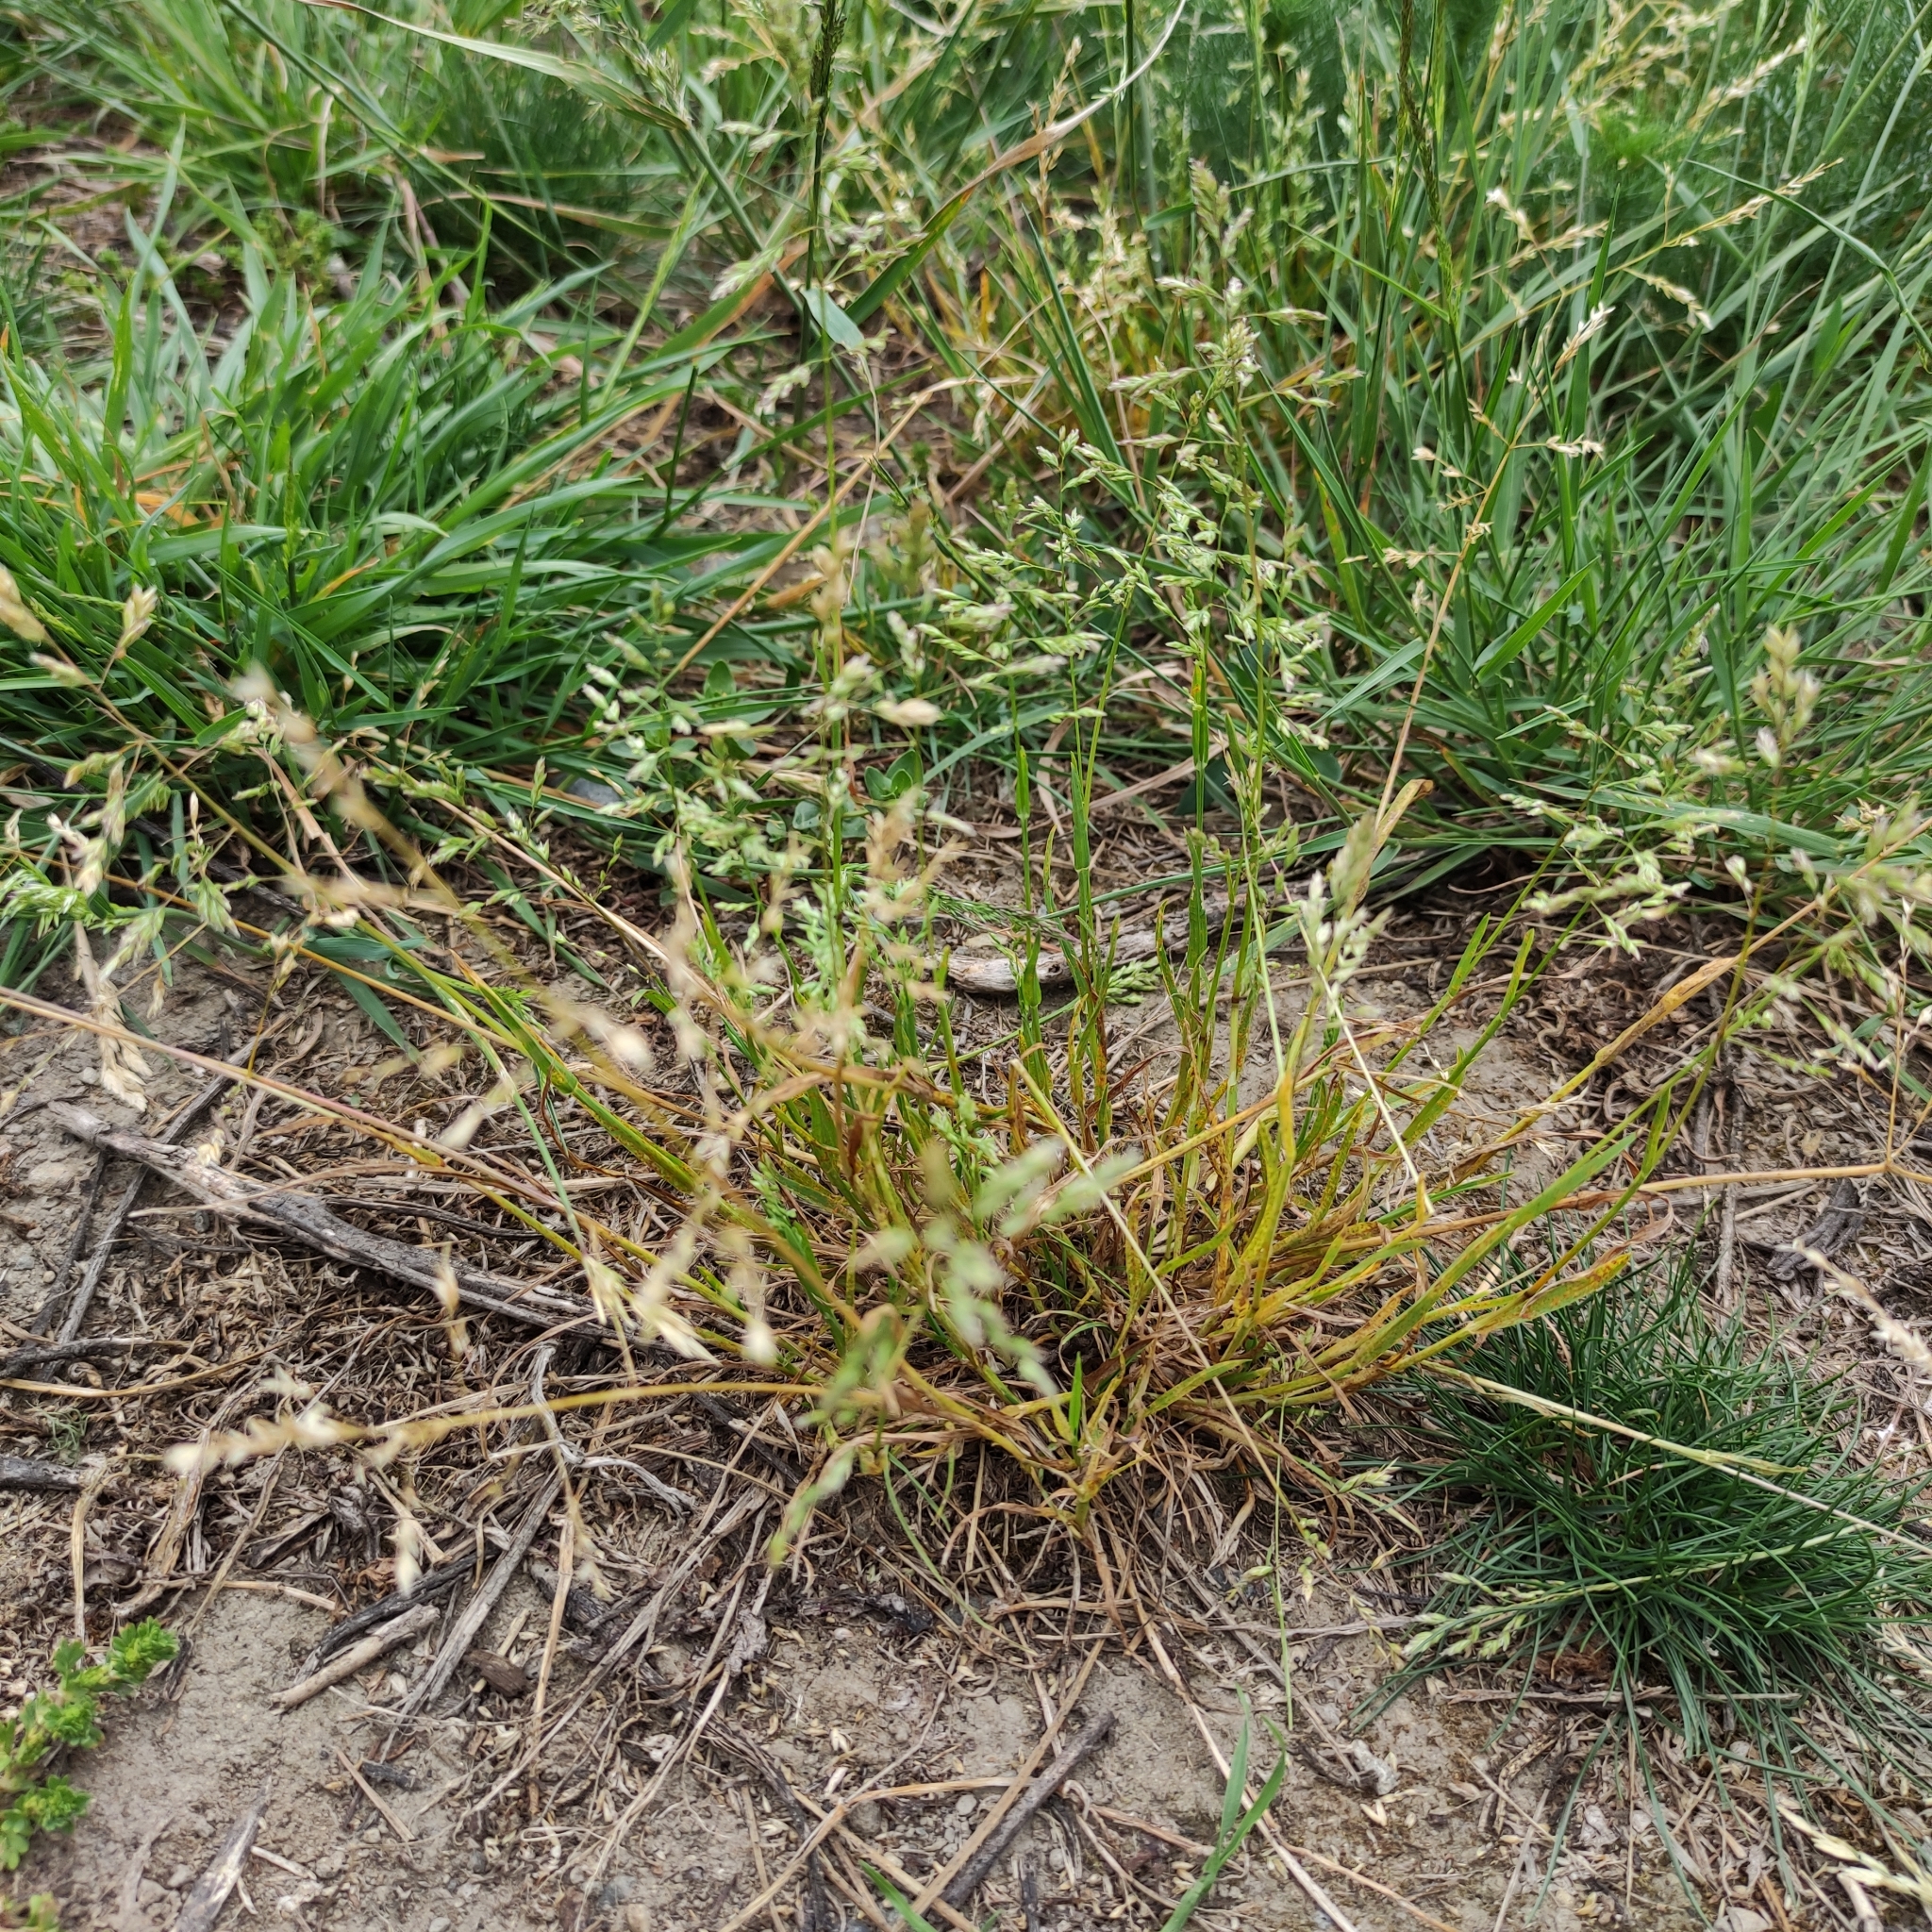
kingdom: Plantae
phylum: Tracheophyta
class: Liliopsida
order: Poales
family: Poaceae
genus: Poa
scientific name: Poa annua
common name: Annual bluegrass
